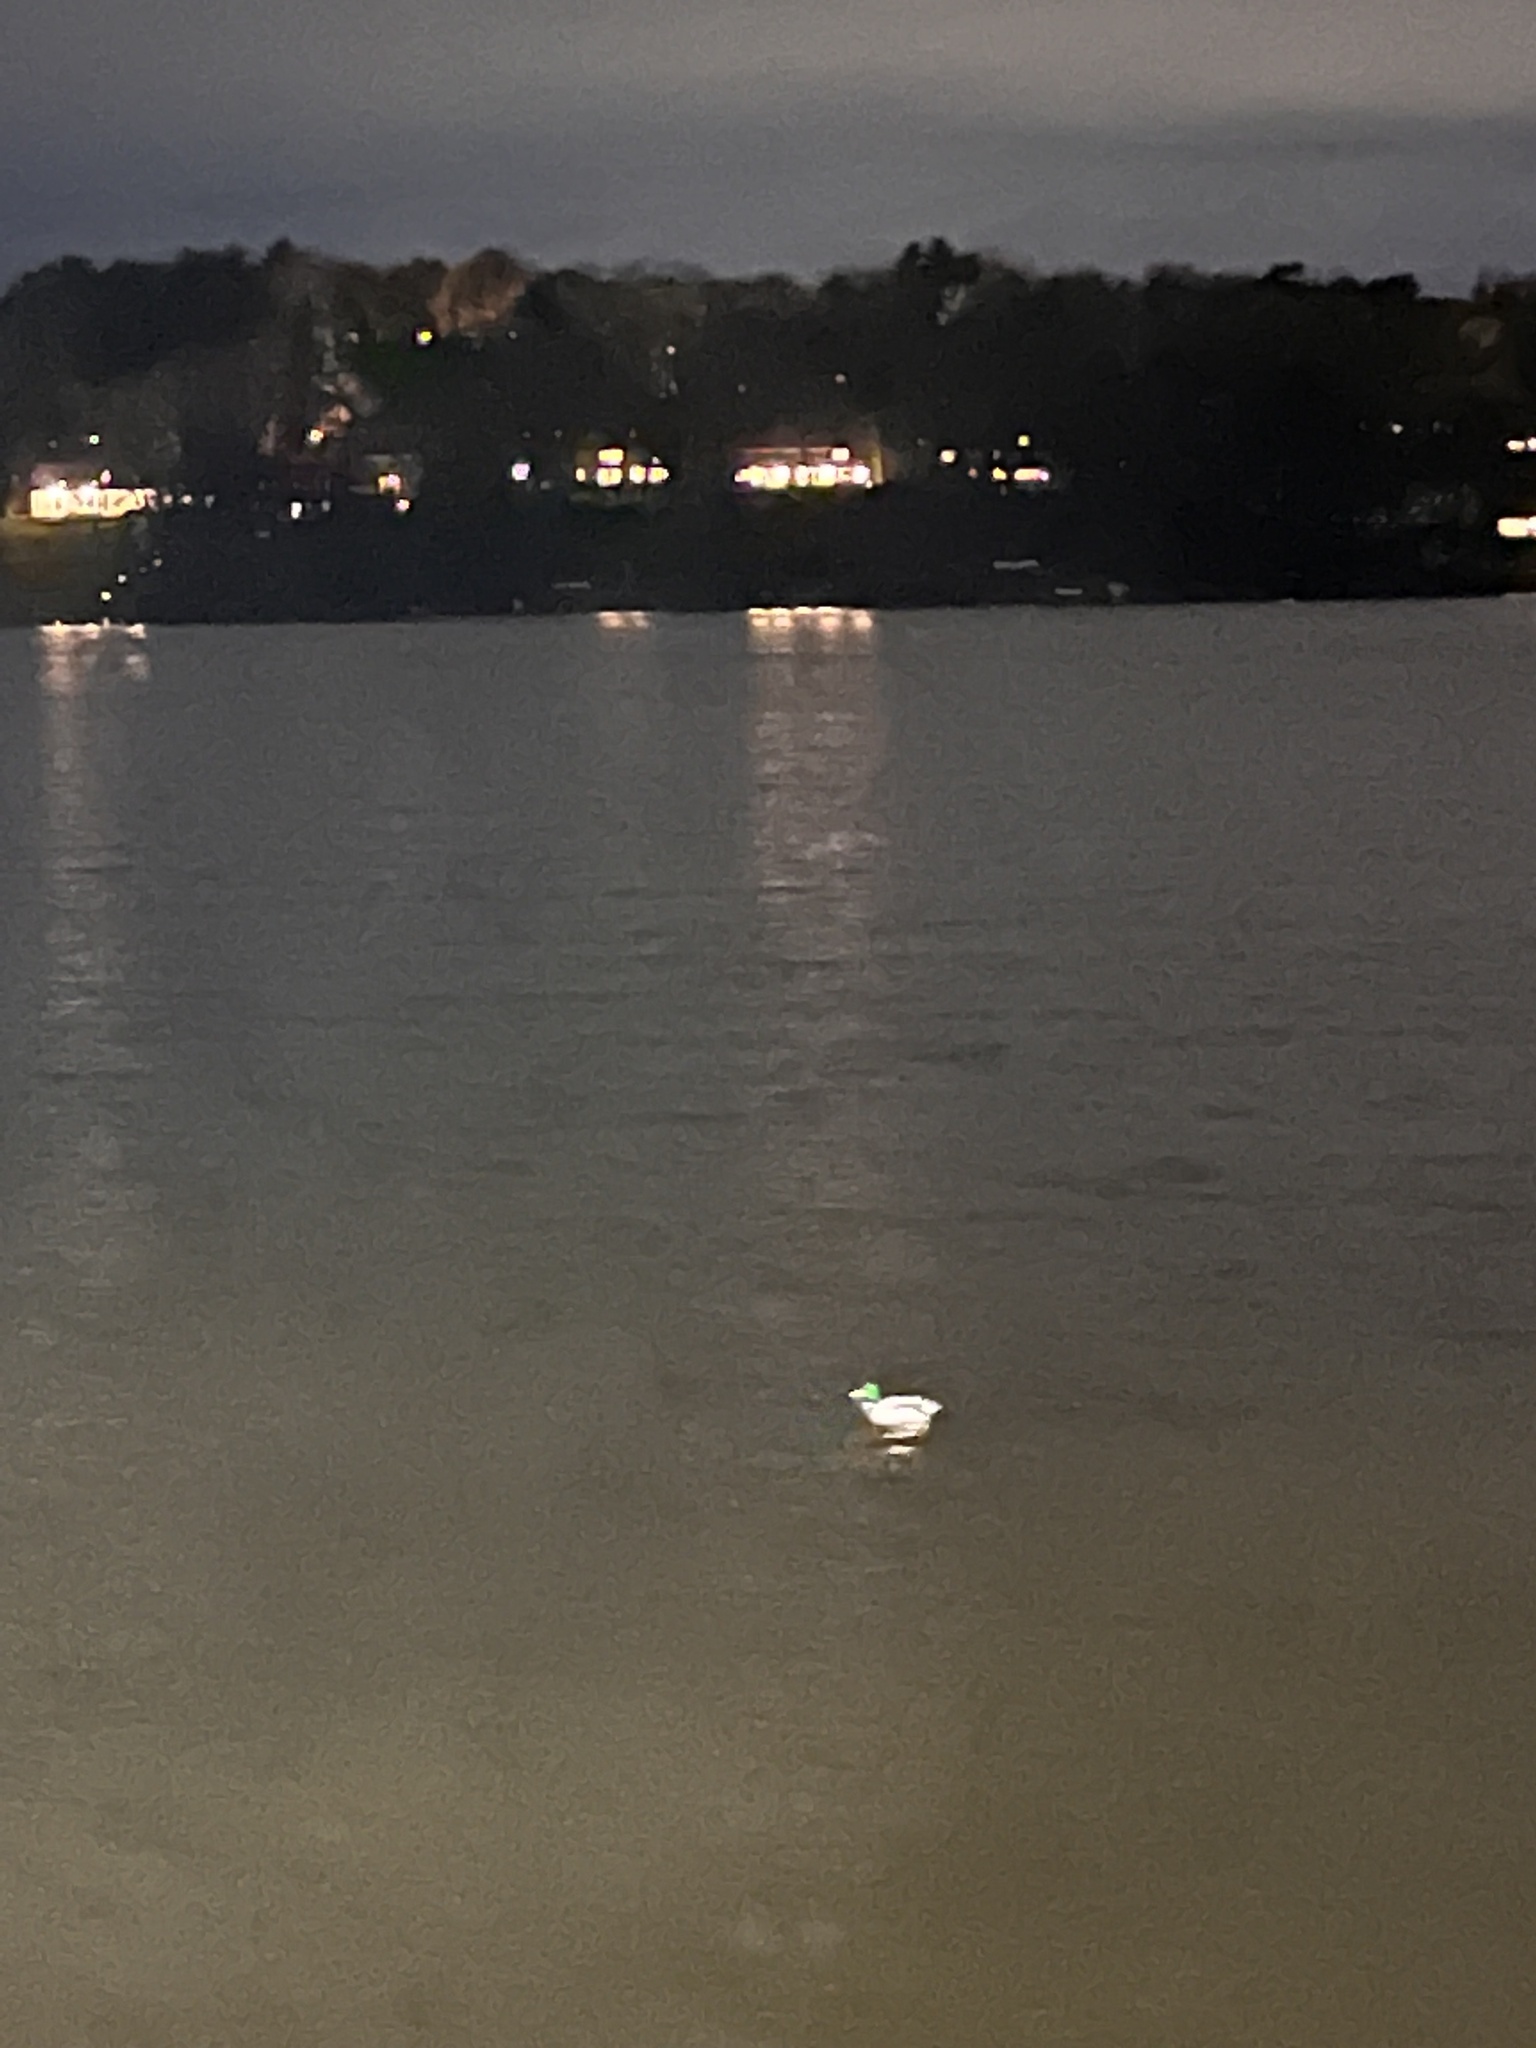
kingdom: Animalia
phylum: Chordata
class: Aves
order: Anseriformes
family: Anatidae
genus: Anas
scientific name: Anas platyrhynchos
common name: Mallard
